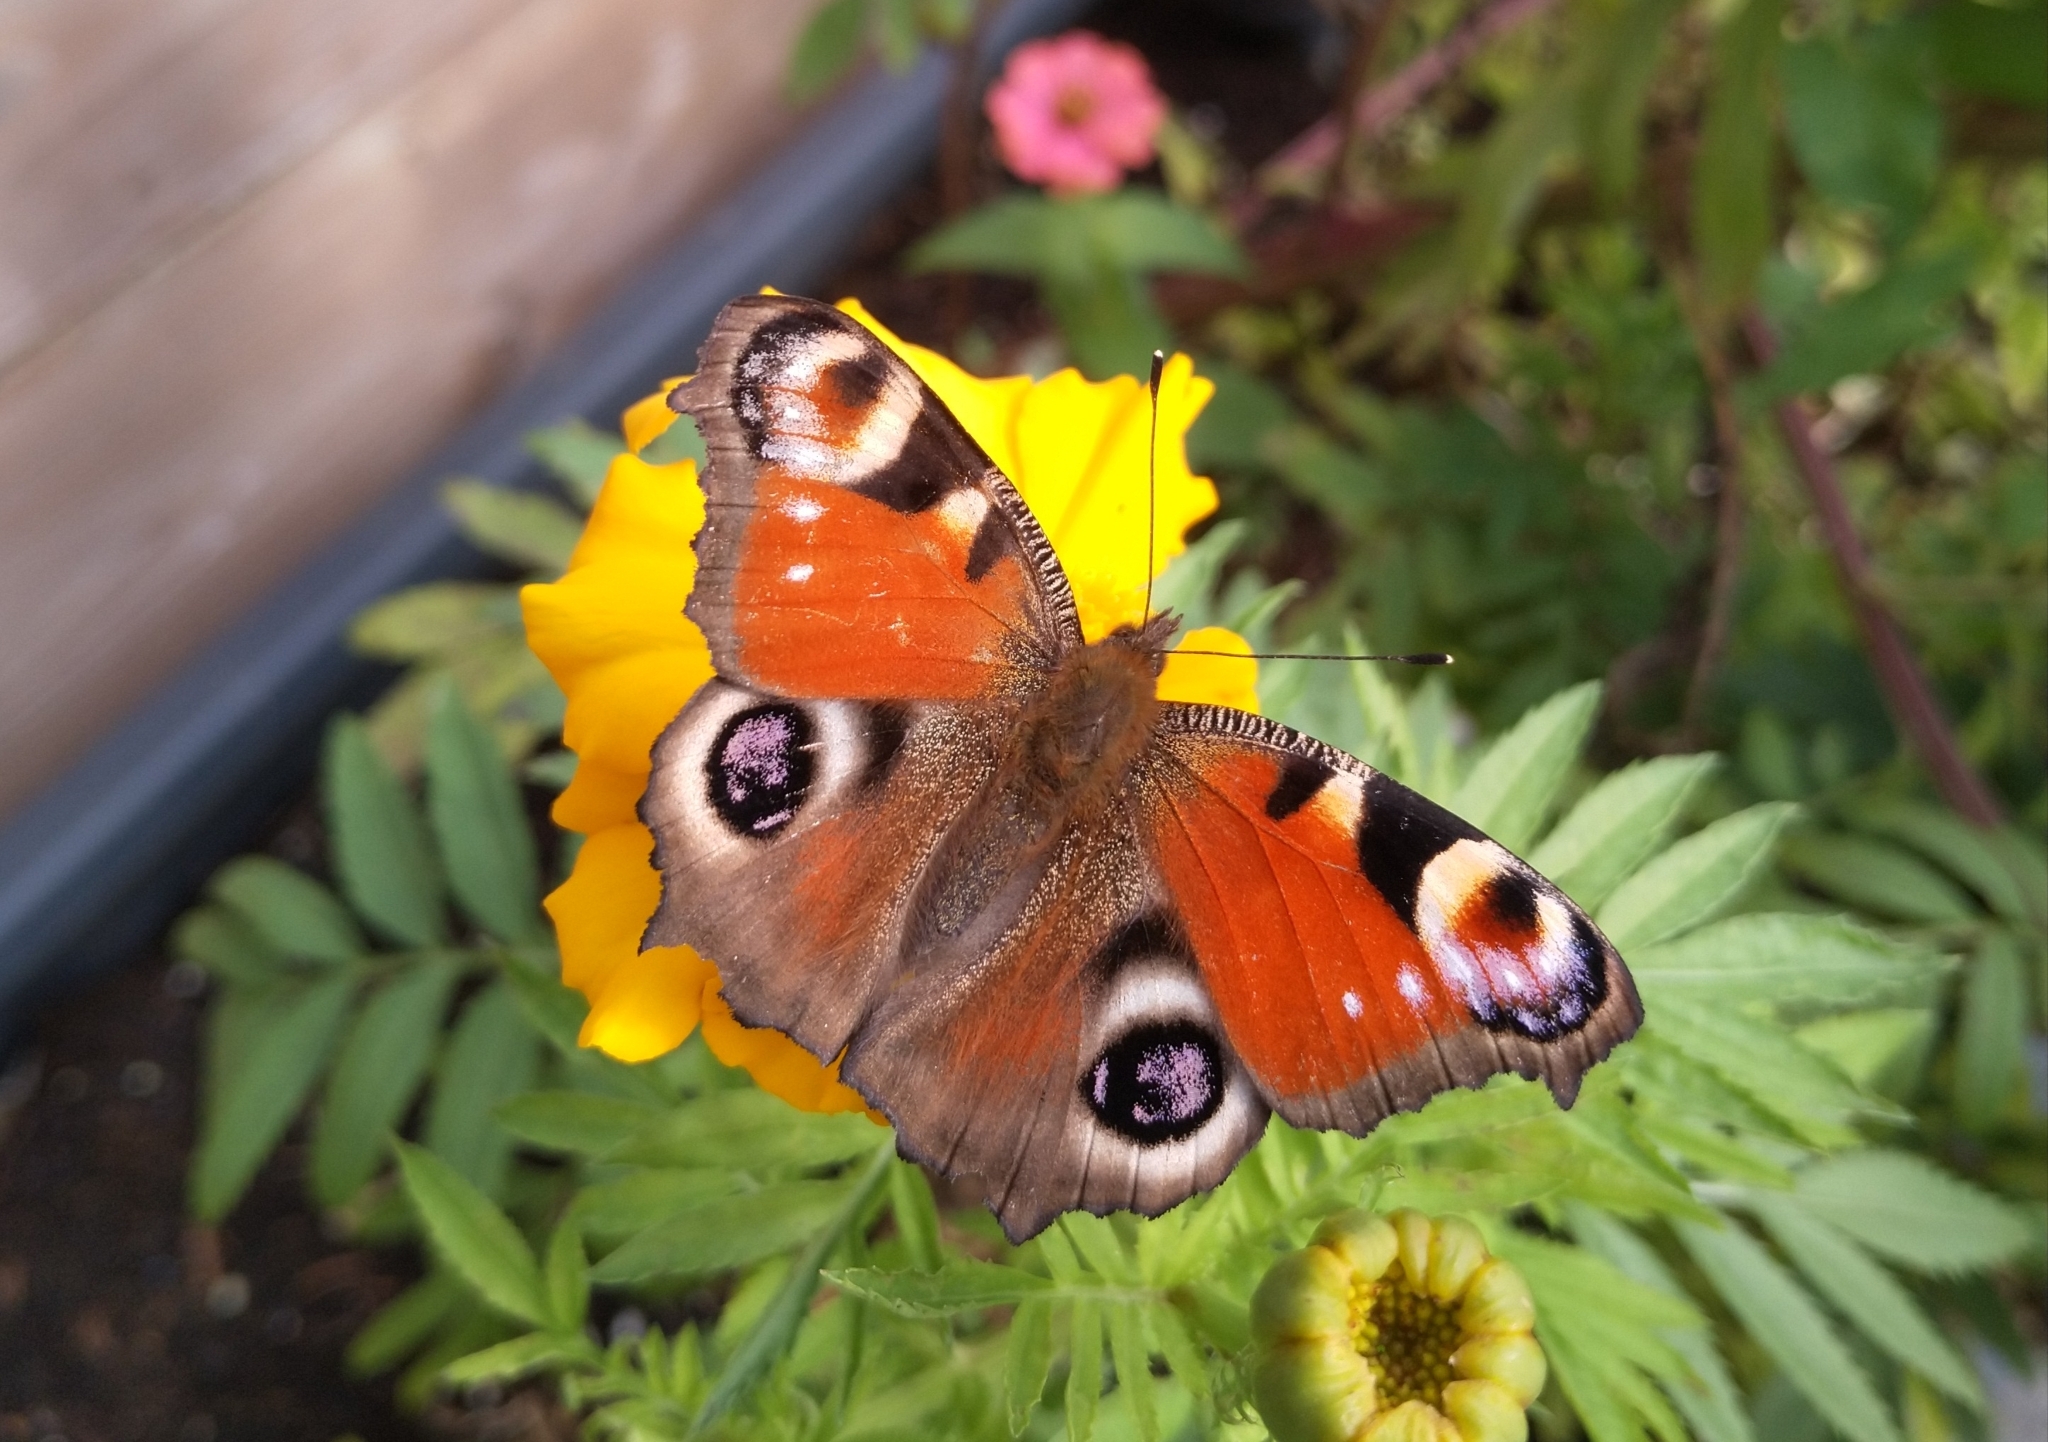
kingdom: Animalia
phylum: Arthropoda
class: Insecta
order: Lepidoptera
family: Nymphalidae
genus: Aglais
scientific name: Aglais io
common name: Peacock
